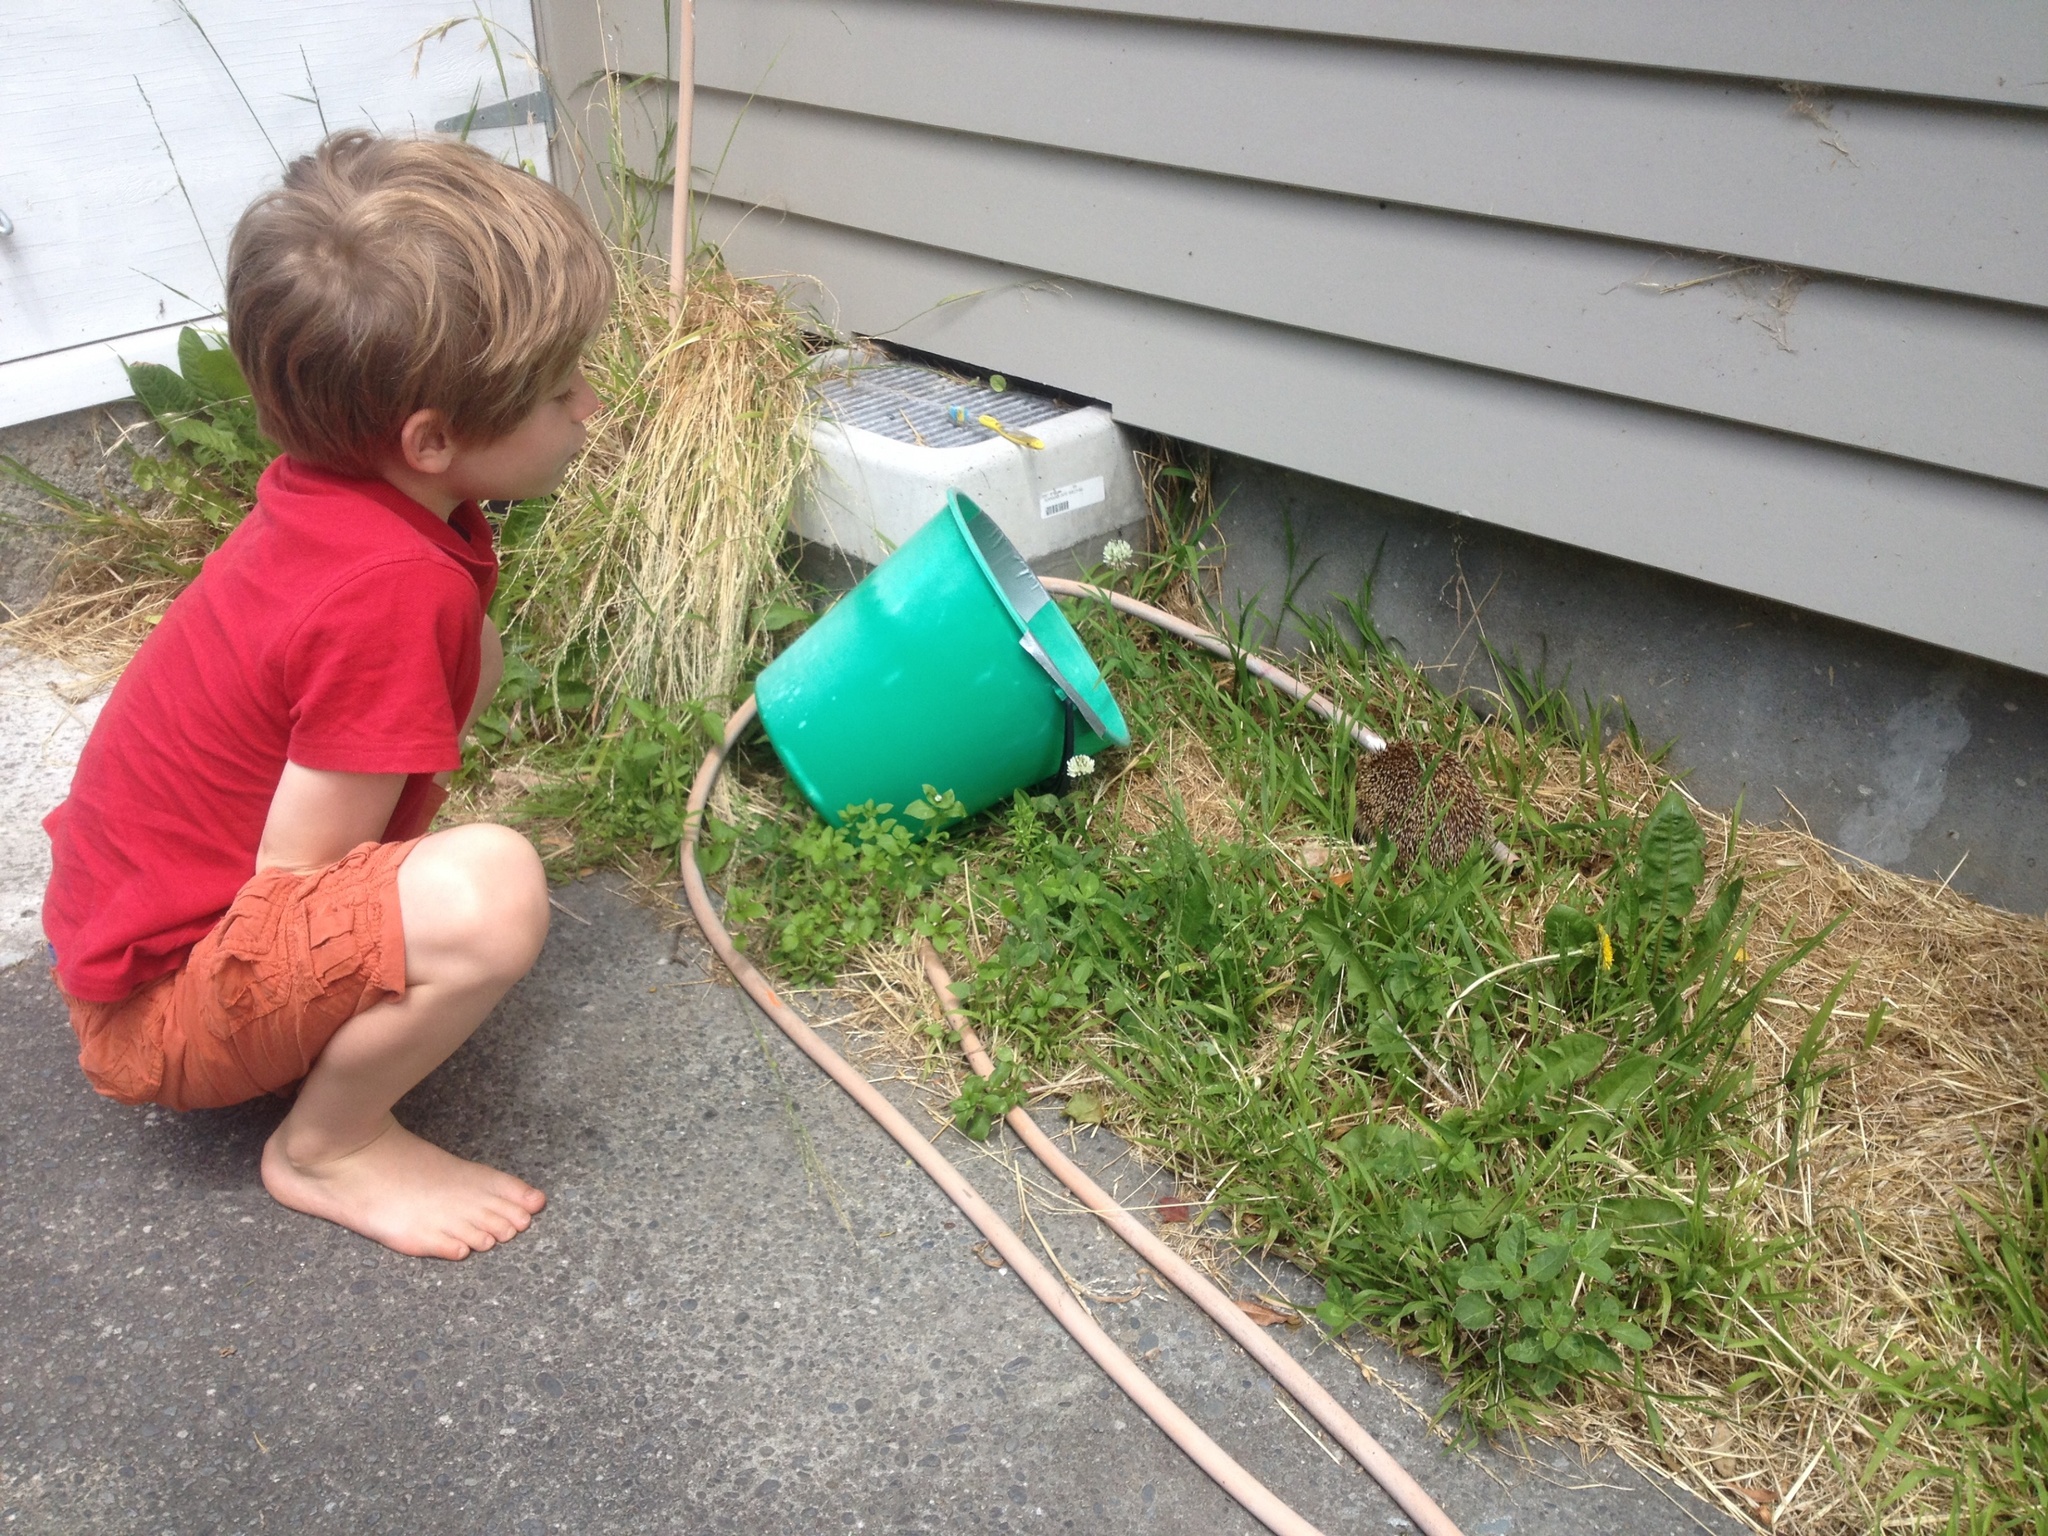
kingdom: Animalia
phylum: Chordata
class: Mammalia
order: Erinaceomorpha
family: Erinaceidae
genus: Erinaceus
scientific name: Erinaceus europaeus
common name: West european hedgehog
